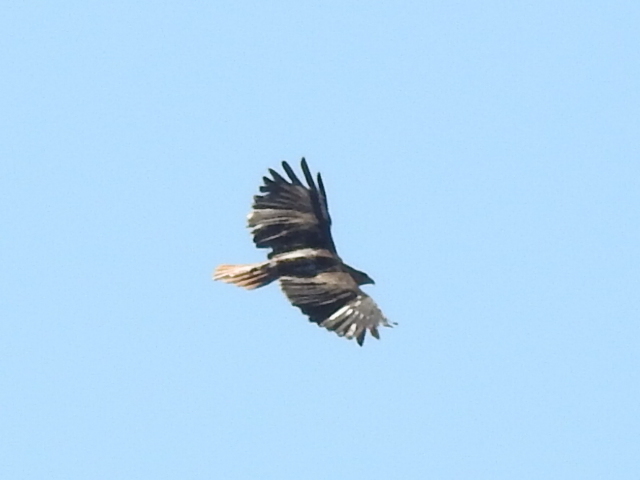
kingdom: Animalia
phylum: Chordata
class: Aves
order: Accipitriformes
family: Accipitridae
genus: Buteo
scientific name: Buteo jamaicensis
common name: Red-tailed hawk
